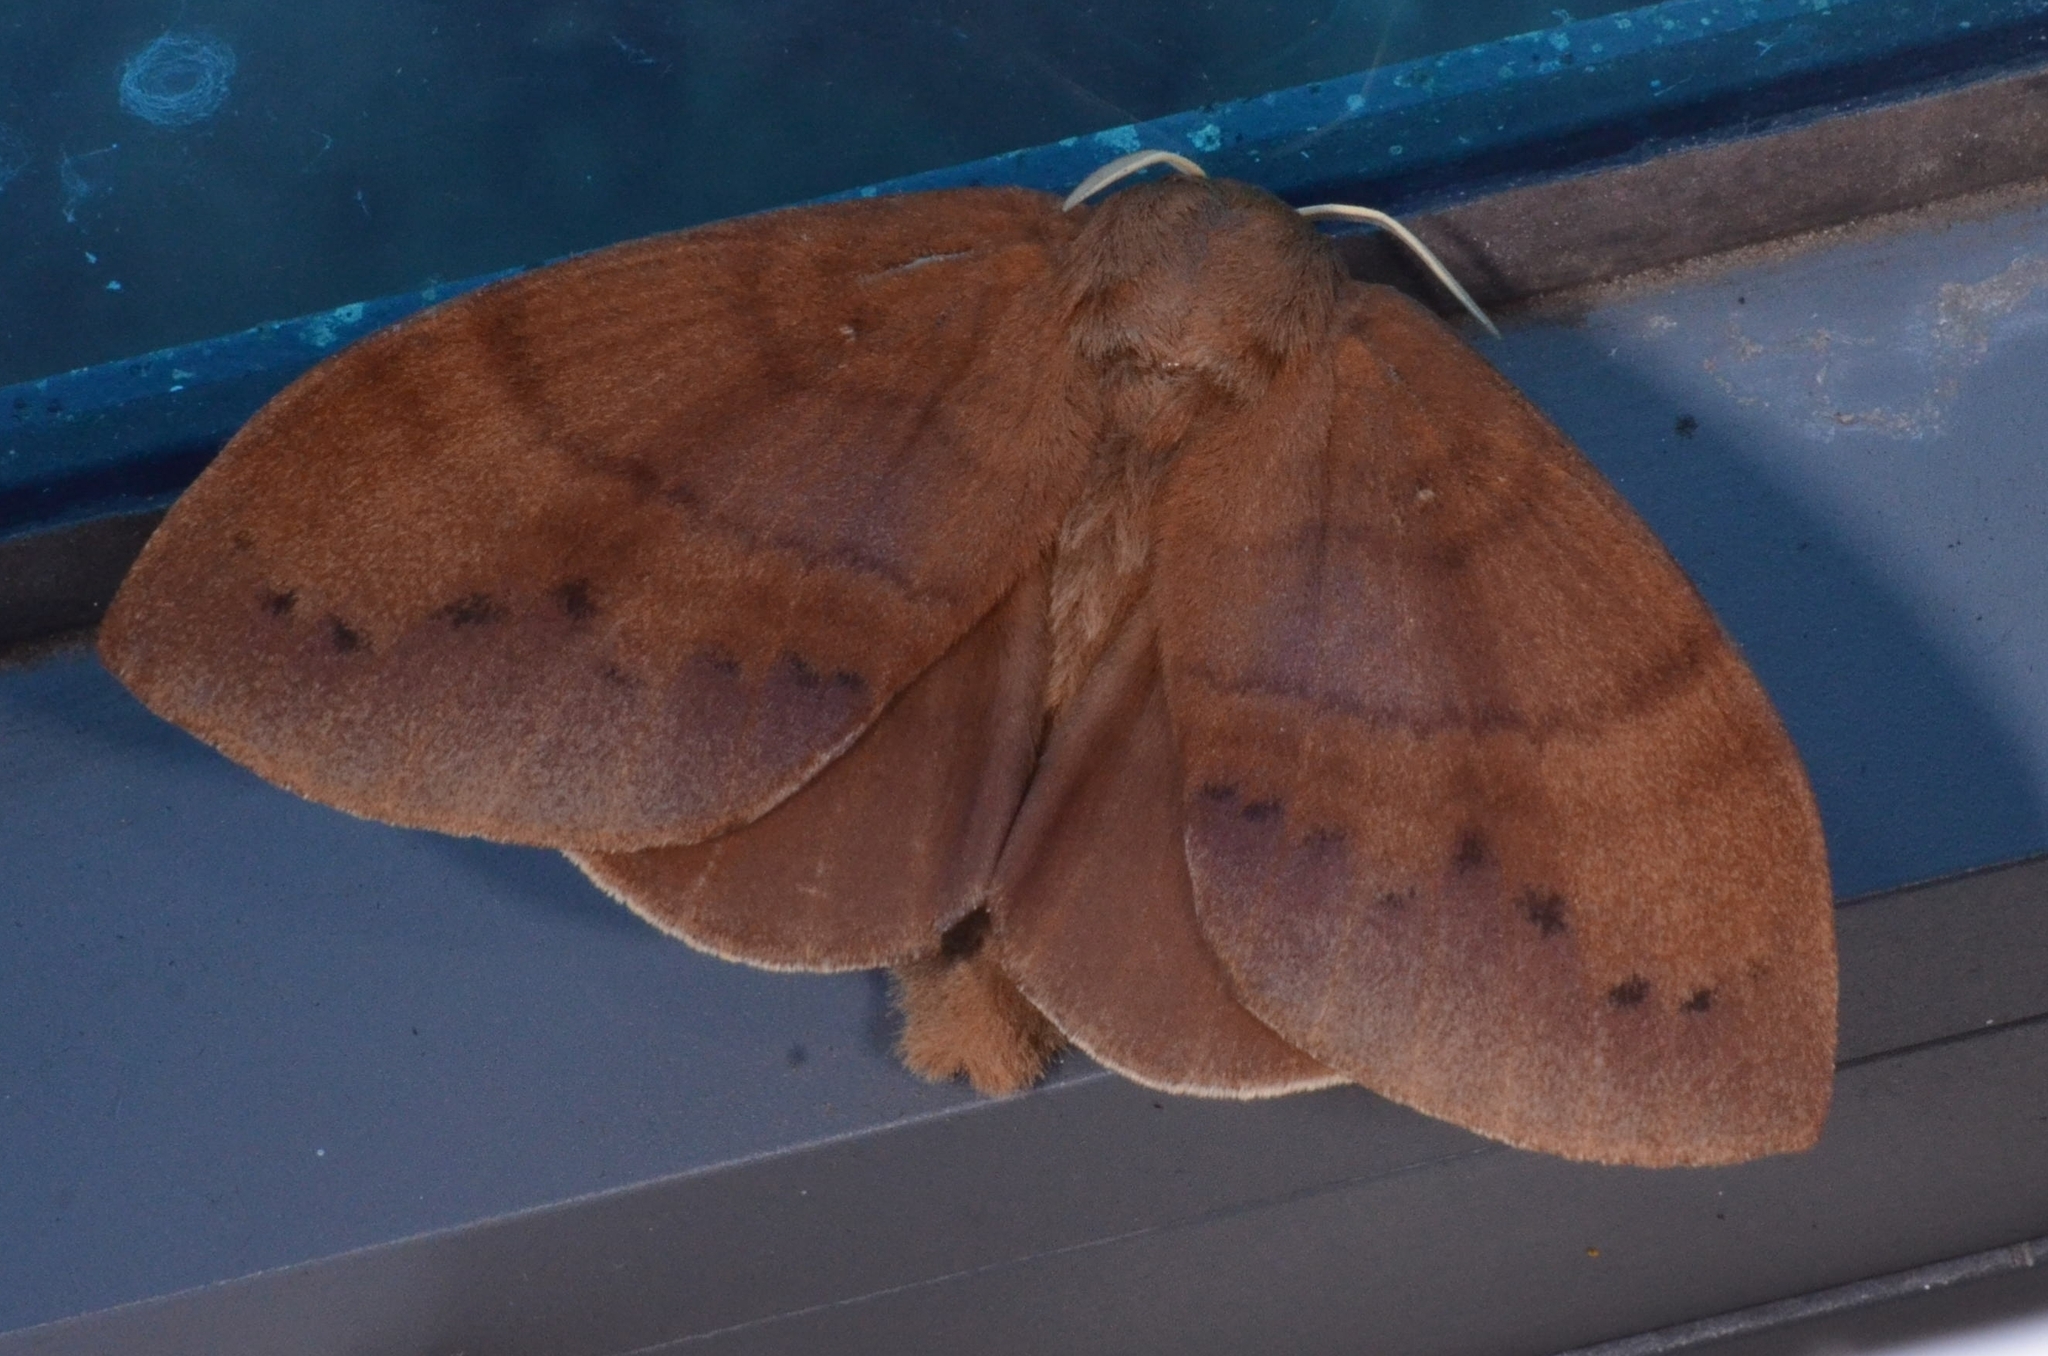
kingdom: Animalia
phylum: Arthropoda
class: Insecta
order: Lepidoptera
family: Lasiocampidae
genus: Dendrolimus
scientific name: Dendrolimus grisea
